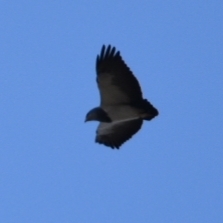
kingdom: Animalia
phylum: Chordata
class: Aves
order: Accipitriformes
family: Accipitridae
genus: Geranoaetus
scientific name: Geranoaetus melanoleucus
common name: Black-chested buzzard-eagle
